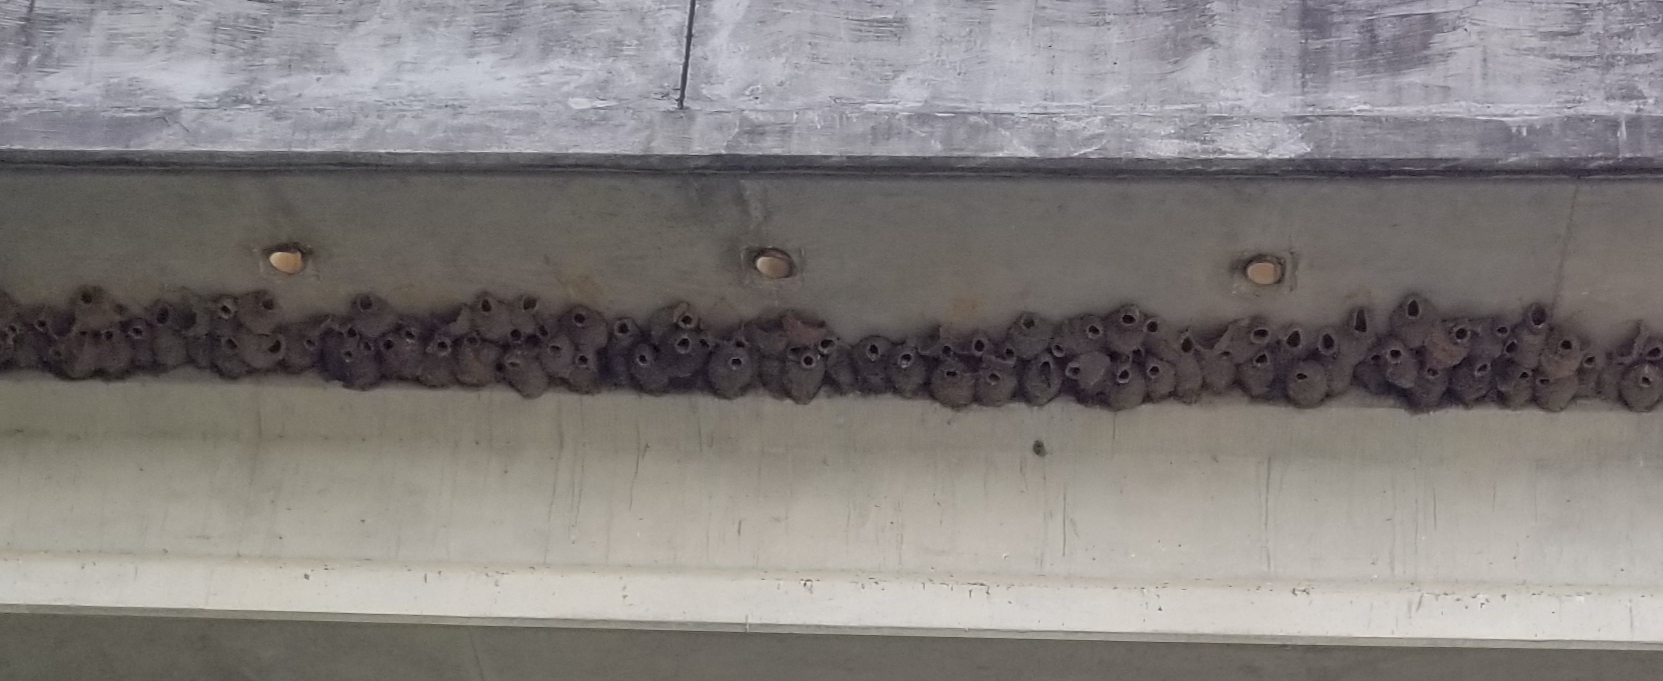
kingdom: Animalia
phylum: Chordata
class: Aves
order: Passeriformes
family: Hirundinidae
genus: Petrochelidon
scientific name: Petrochelidon pyrrhonota
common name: American cliff swallow
